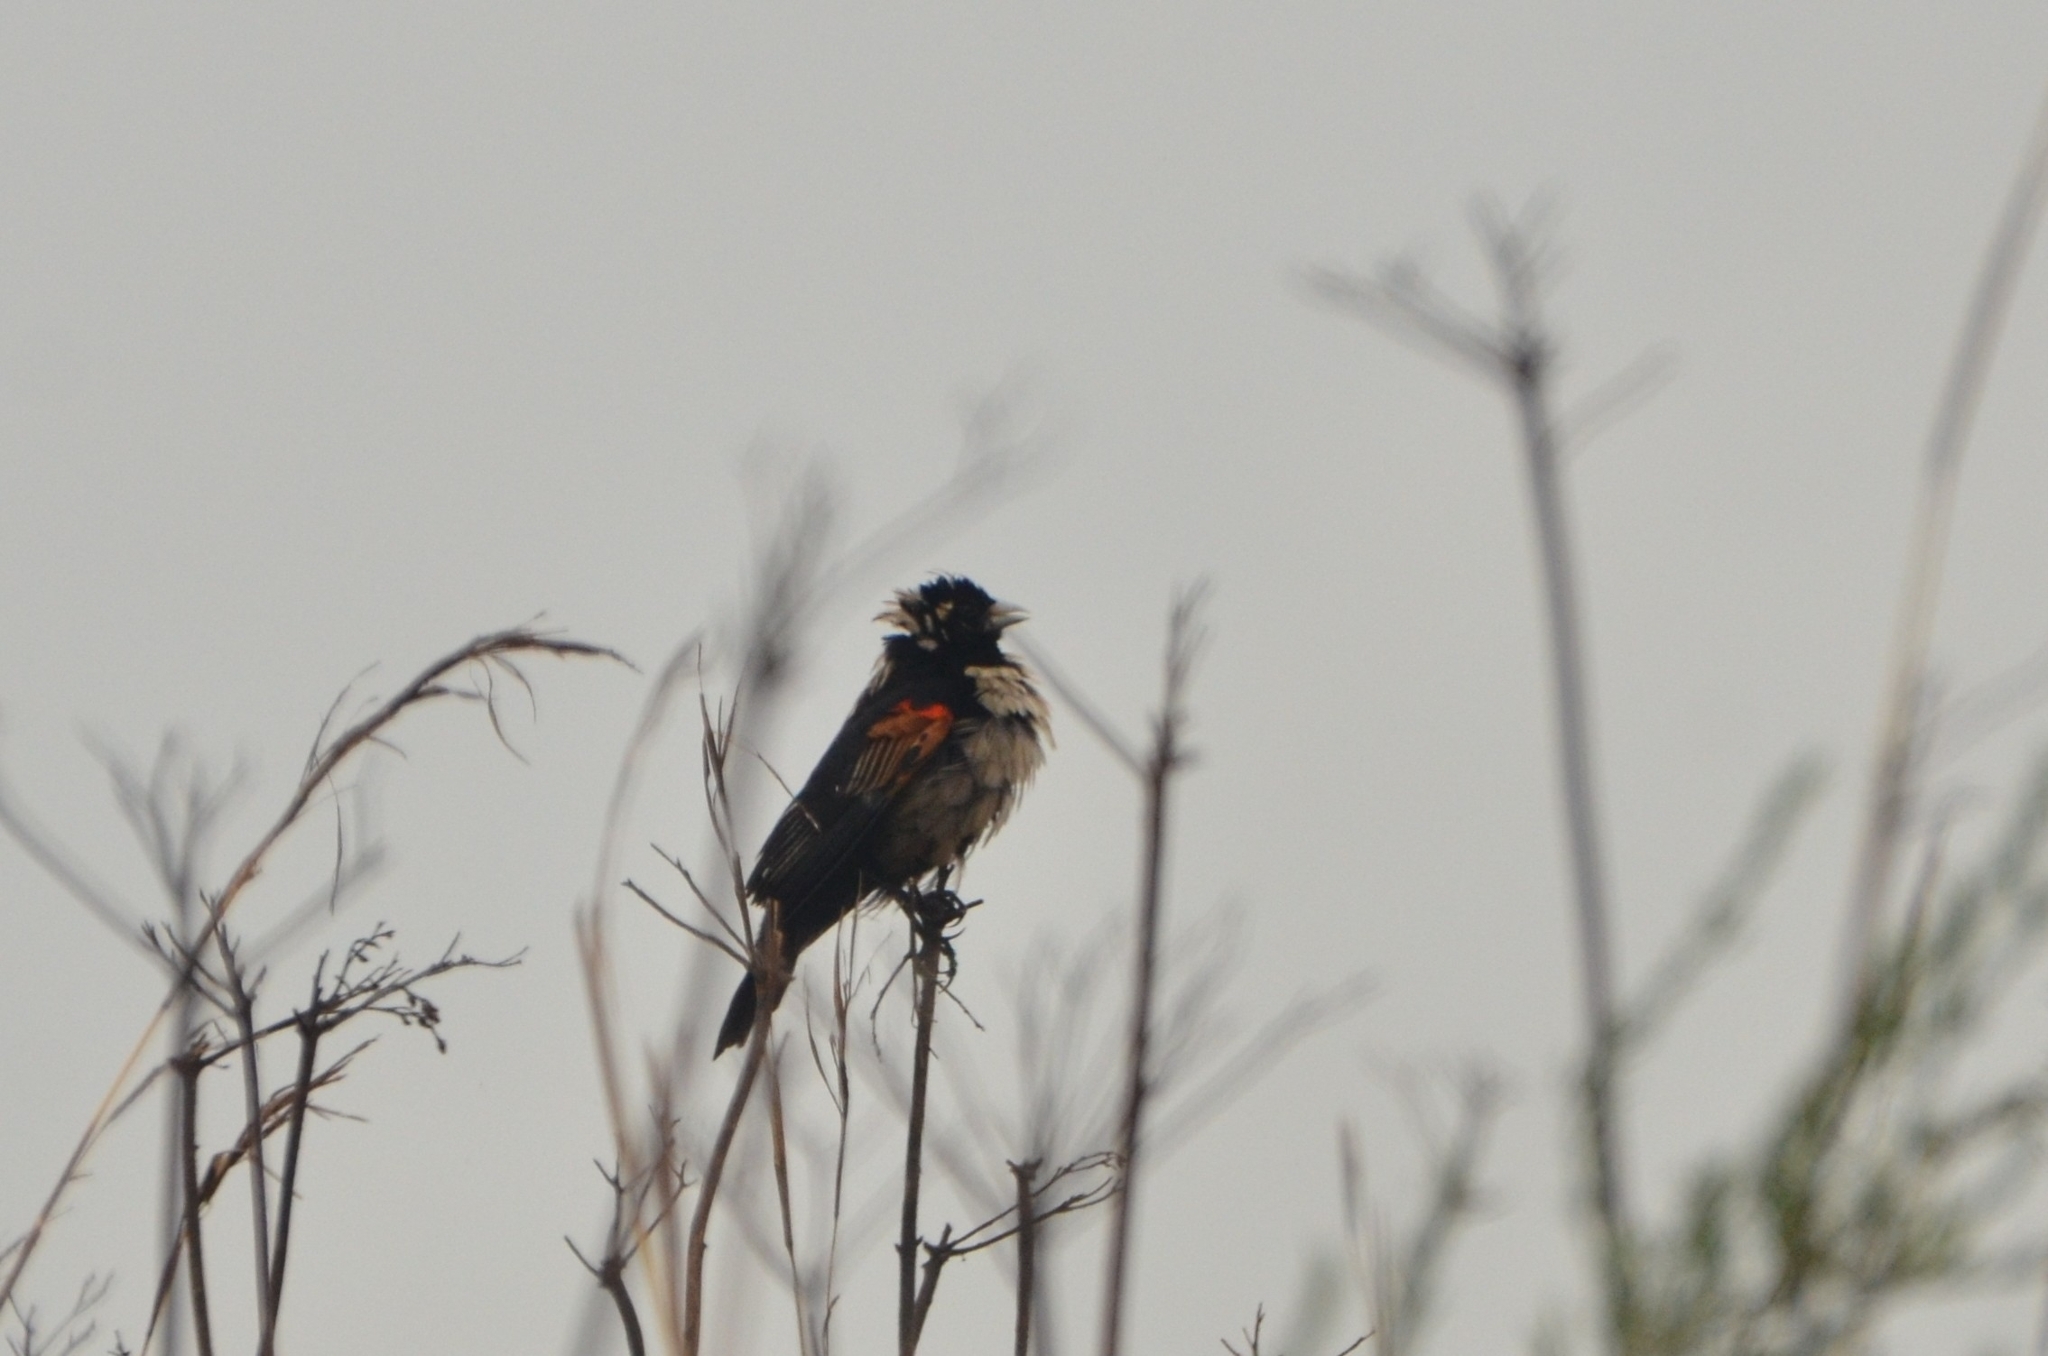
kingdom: Animalia
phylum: Chordata
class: Aves
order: Passeriformes
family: Ploceidae
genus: Euplectes
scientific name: Euplectes axillaris
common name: Fan-tailed widowbird
